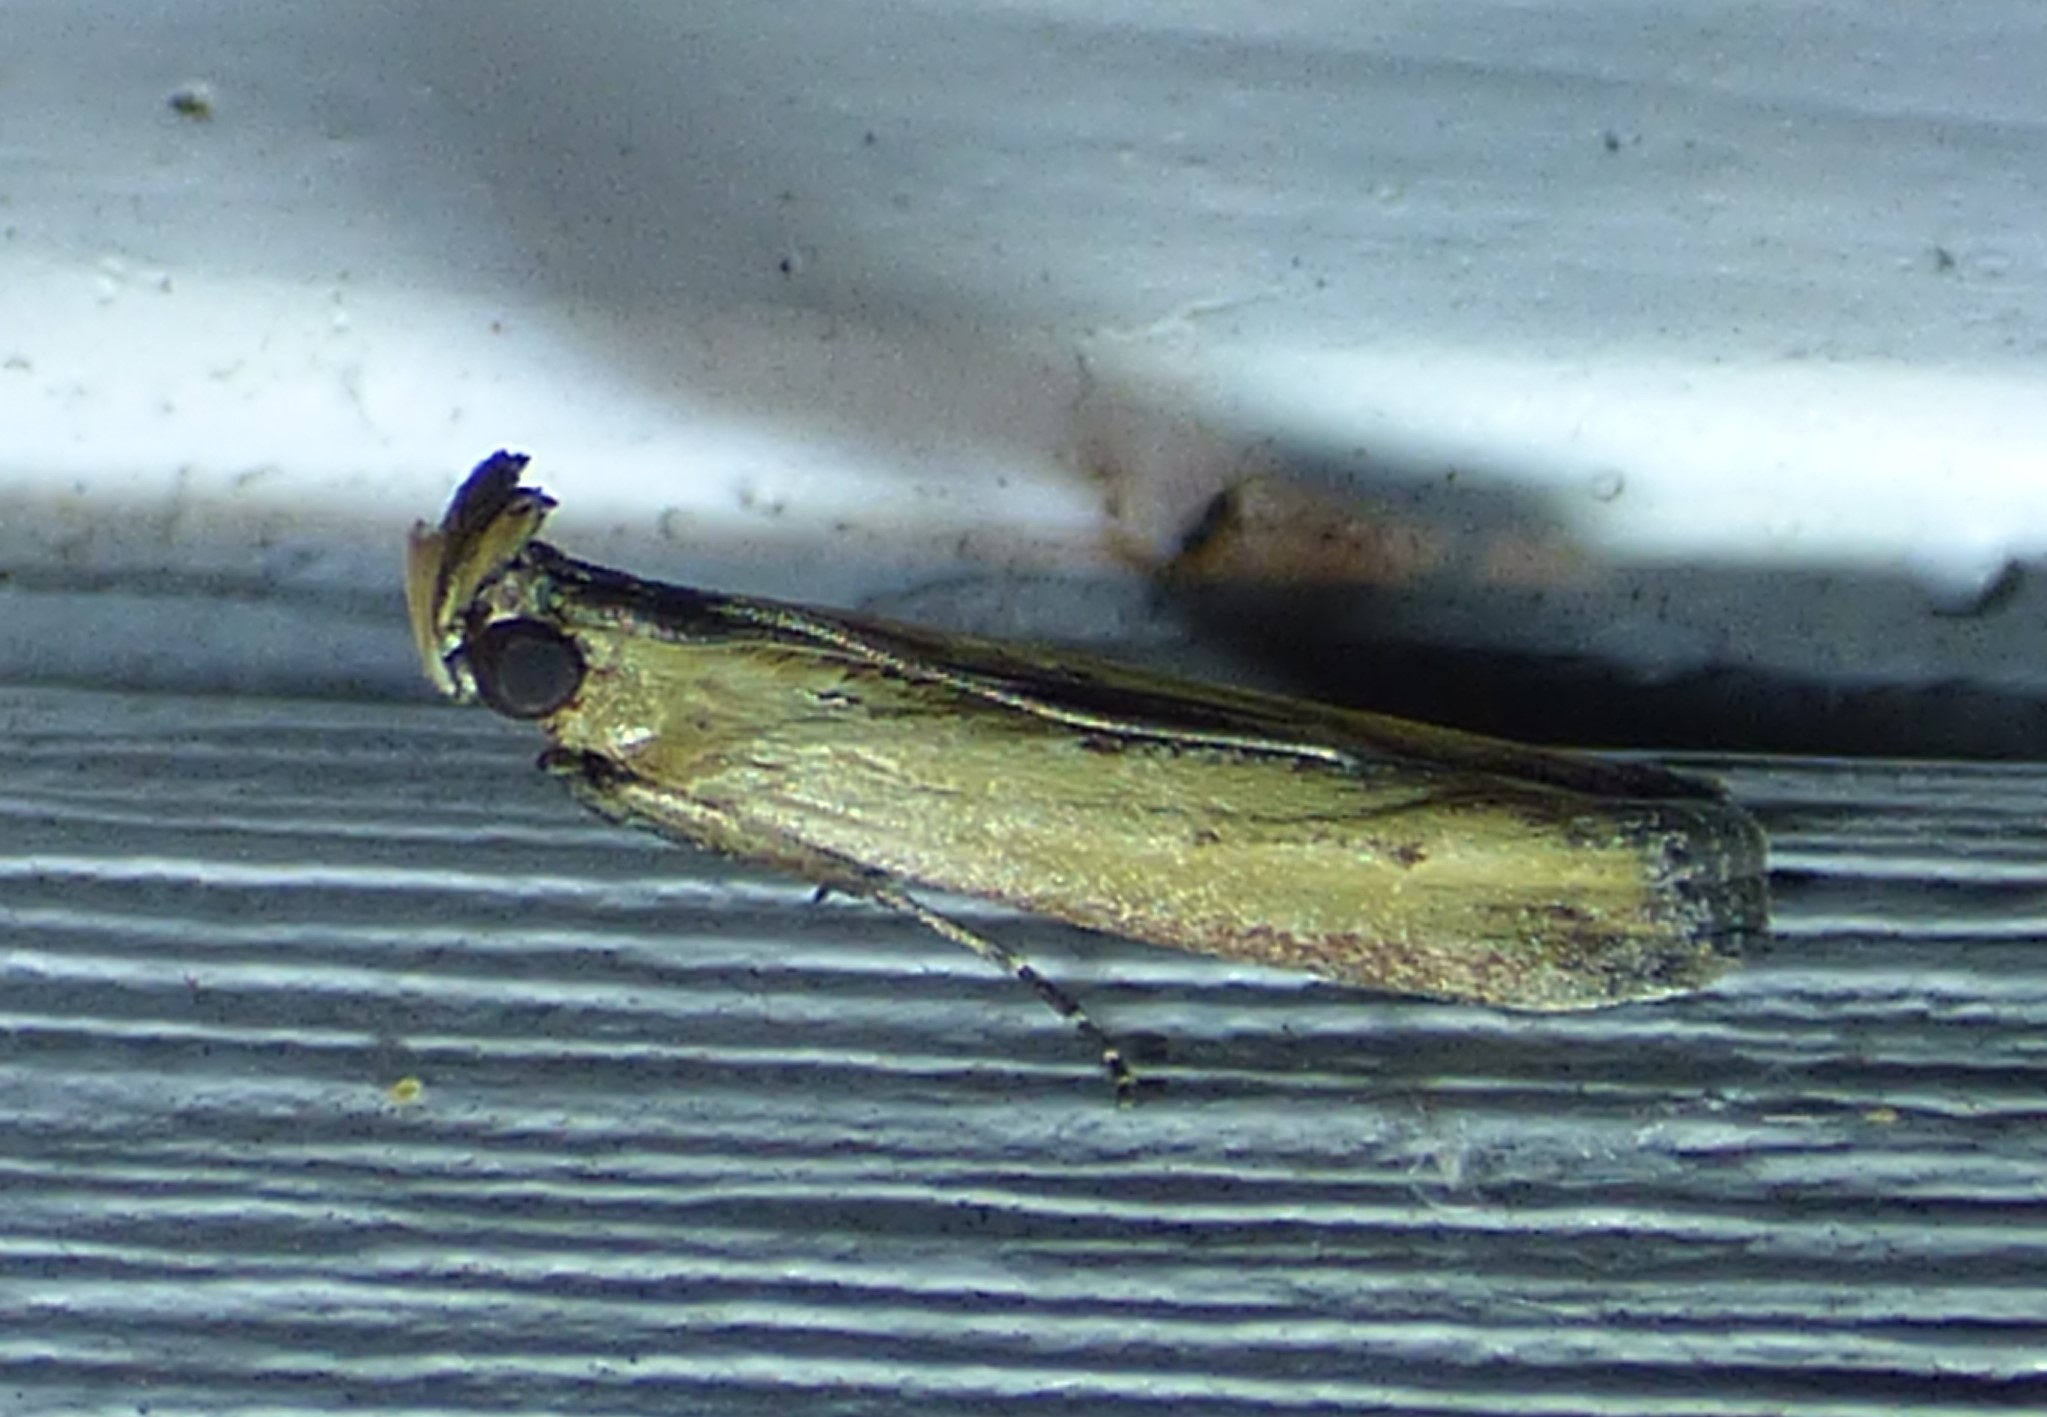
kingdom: Animalia
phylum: Arthropoda
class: Insecta
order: Lepidoptera
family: Pyralidae
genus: Elasmopalpus
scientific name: Elasmopalpus lignosella
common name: Lesser cornstalk borer
